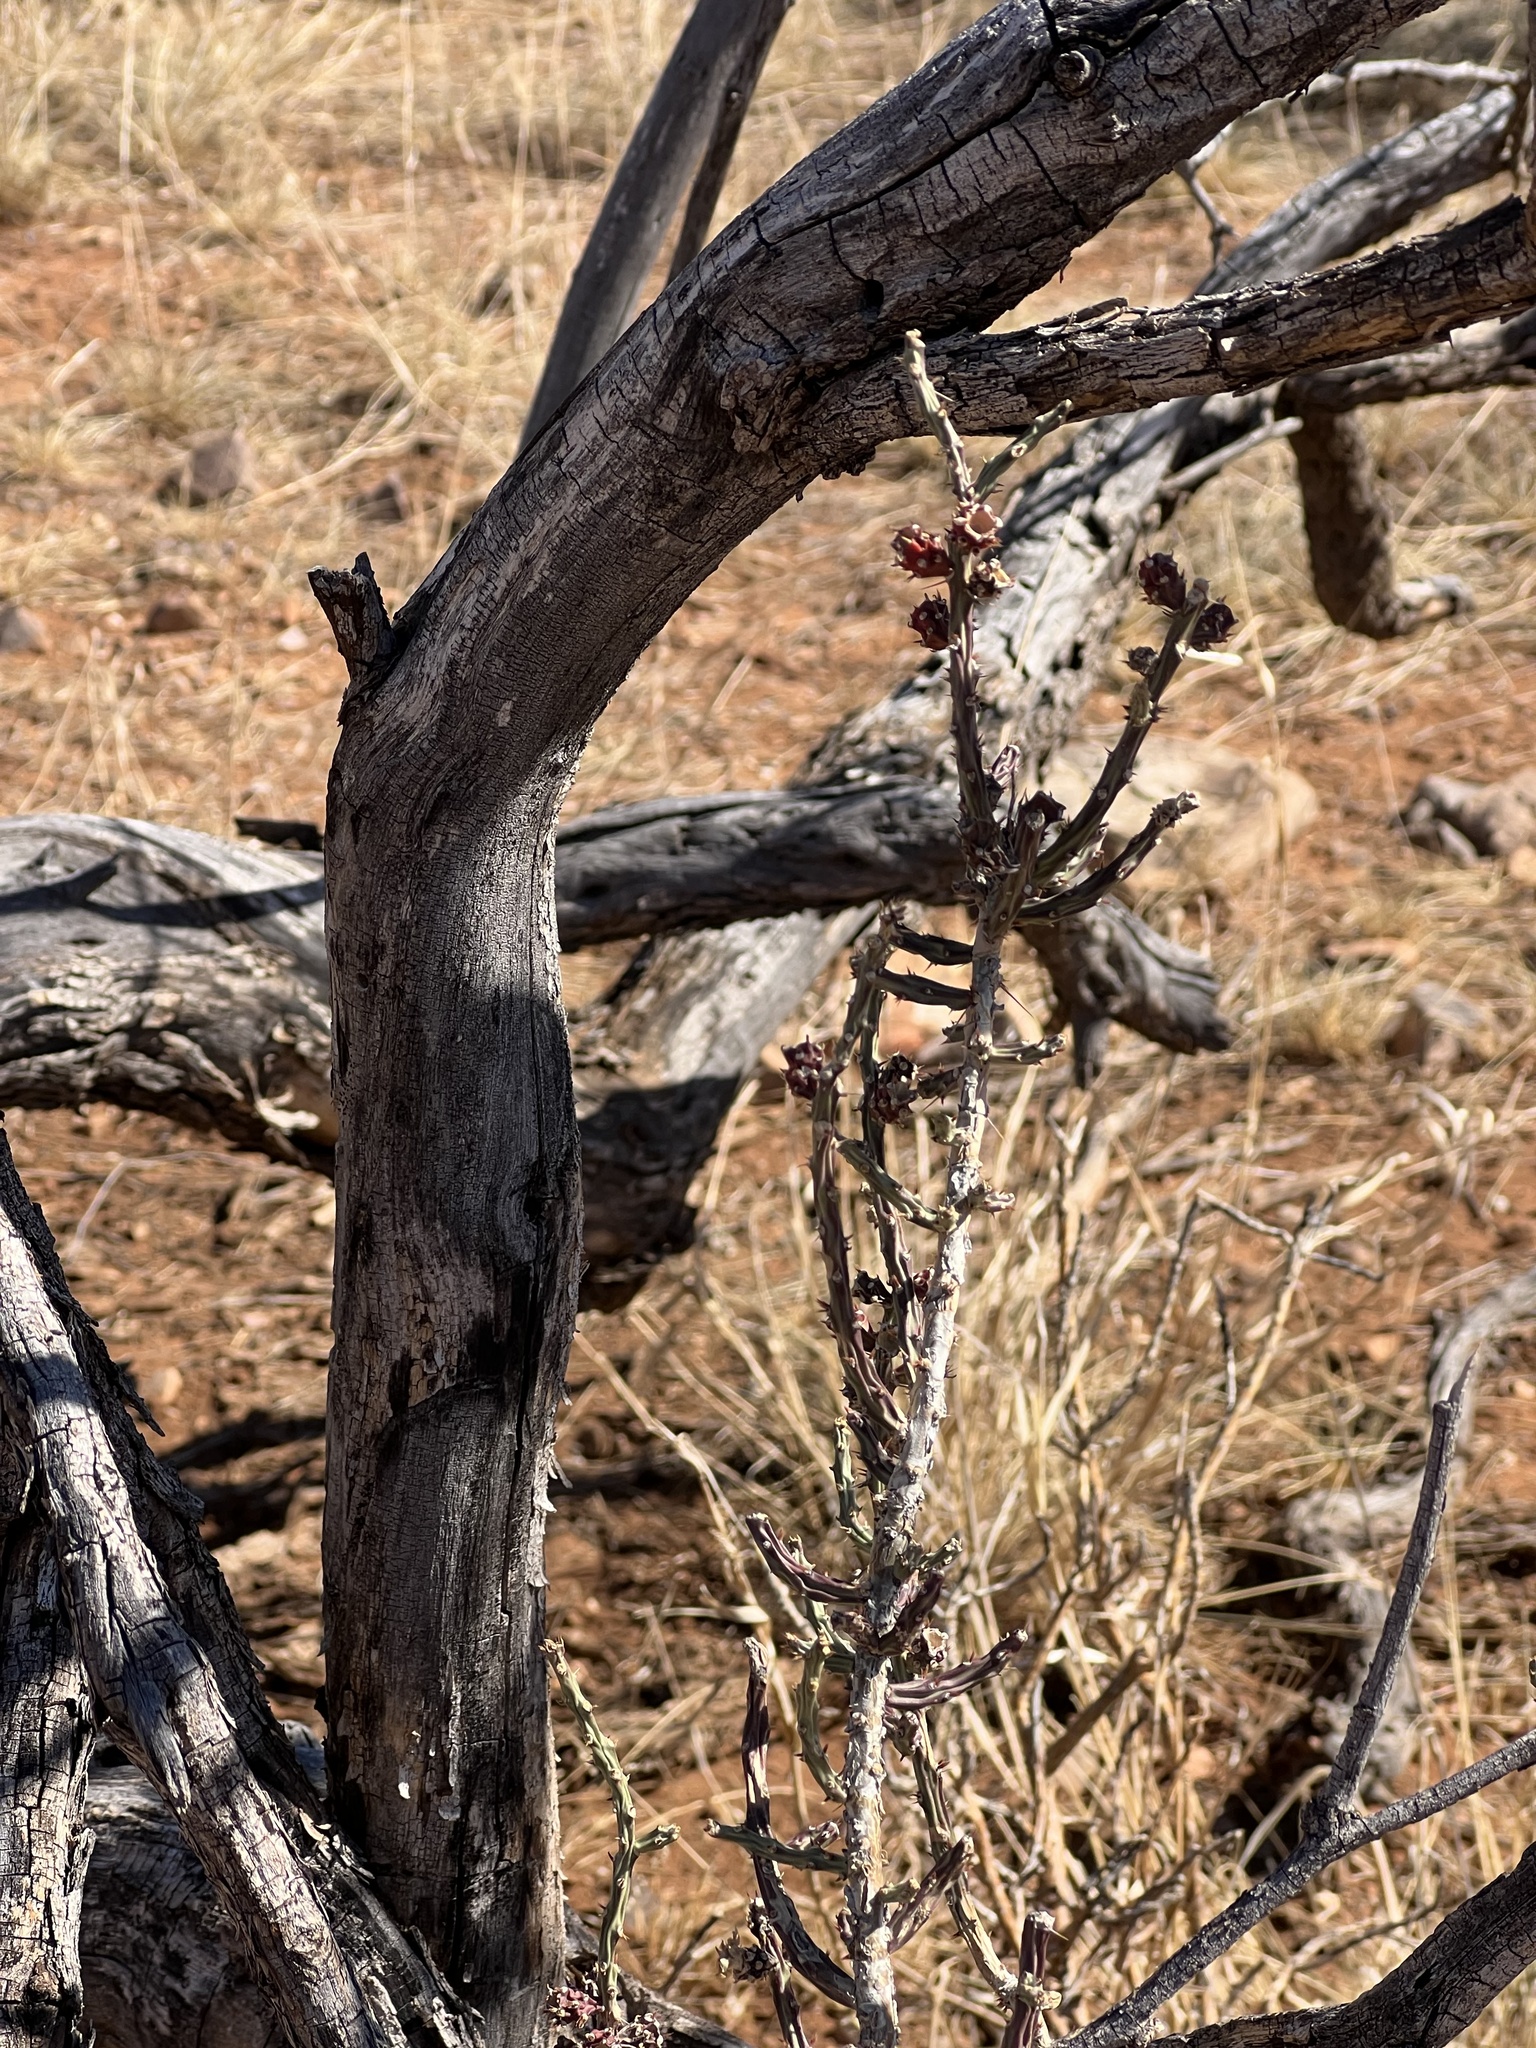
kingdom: Plantae
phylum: Tracheophyta
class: Magnoliopsida
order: Caryophyllales
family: Cactaceae
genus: Cylindropuntia
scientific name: Cylindropuntia leptocaulis
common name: Christmas cactus
